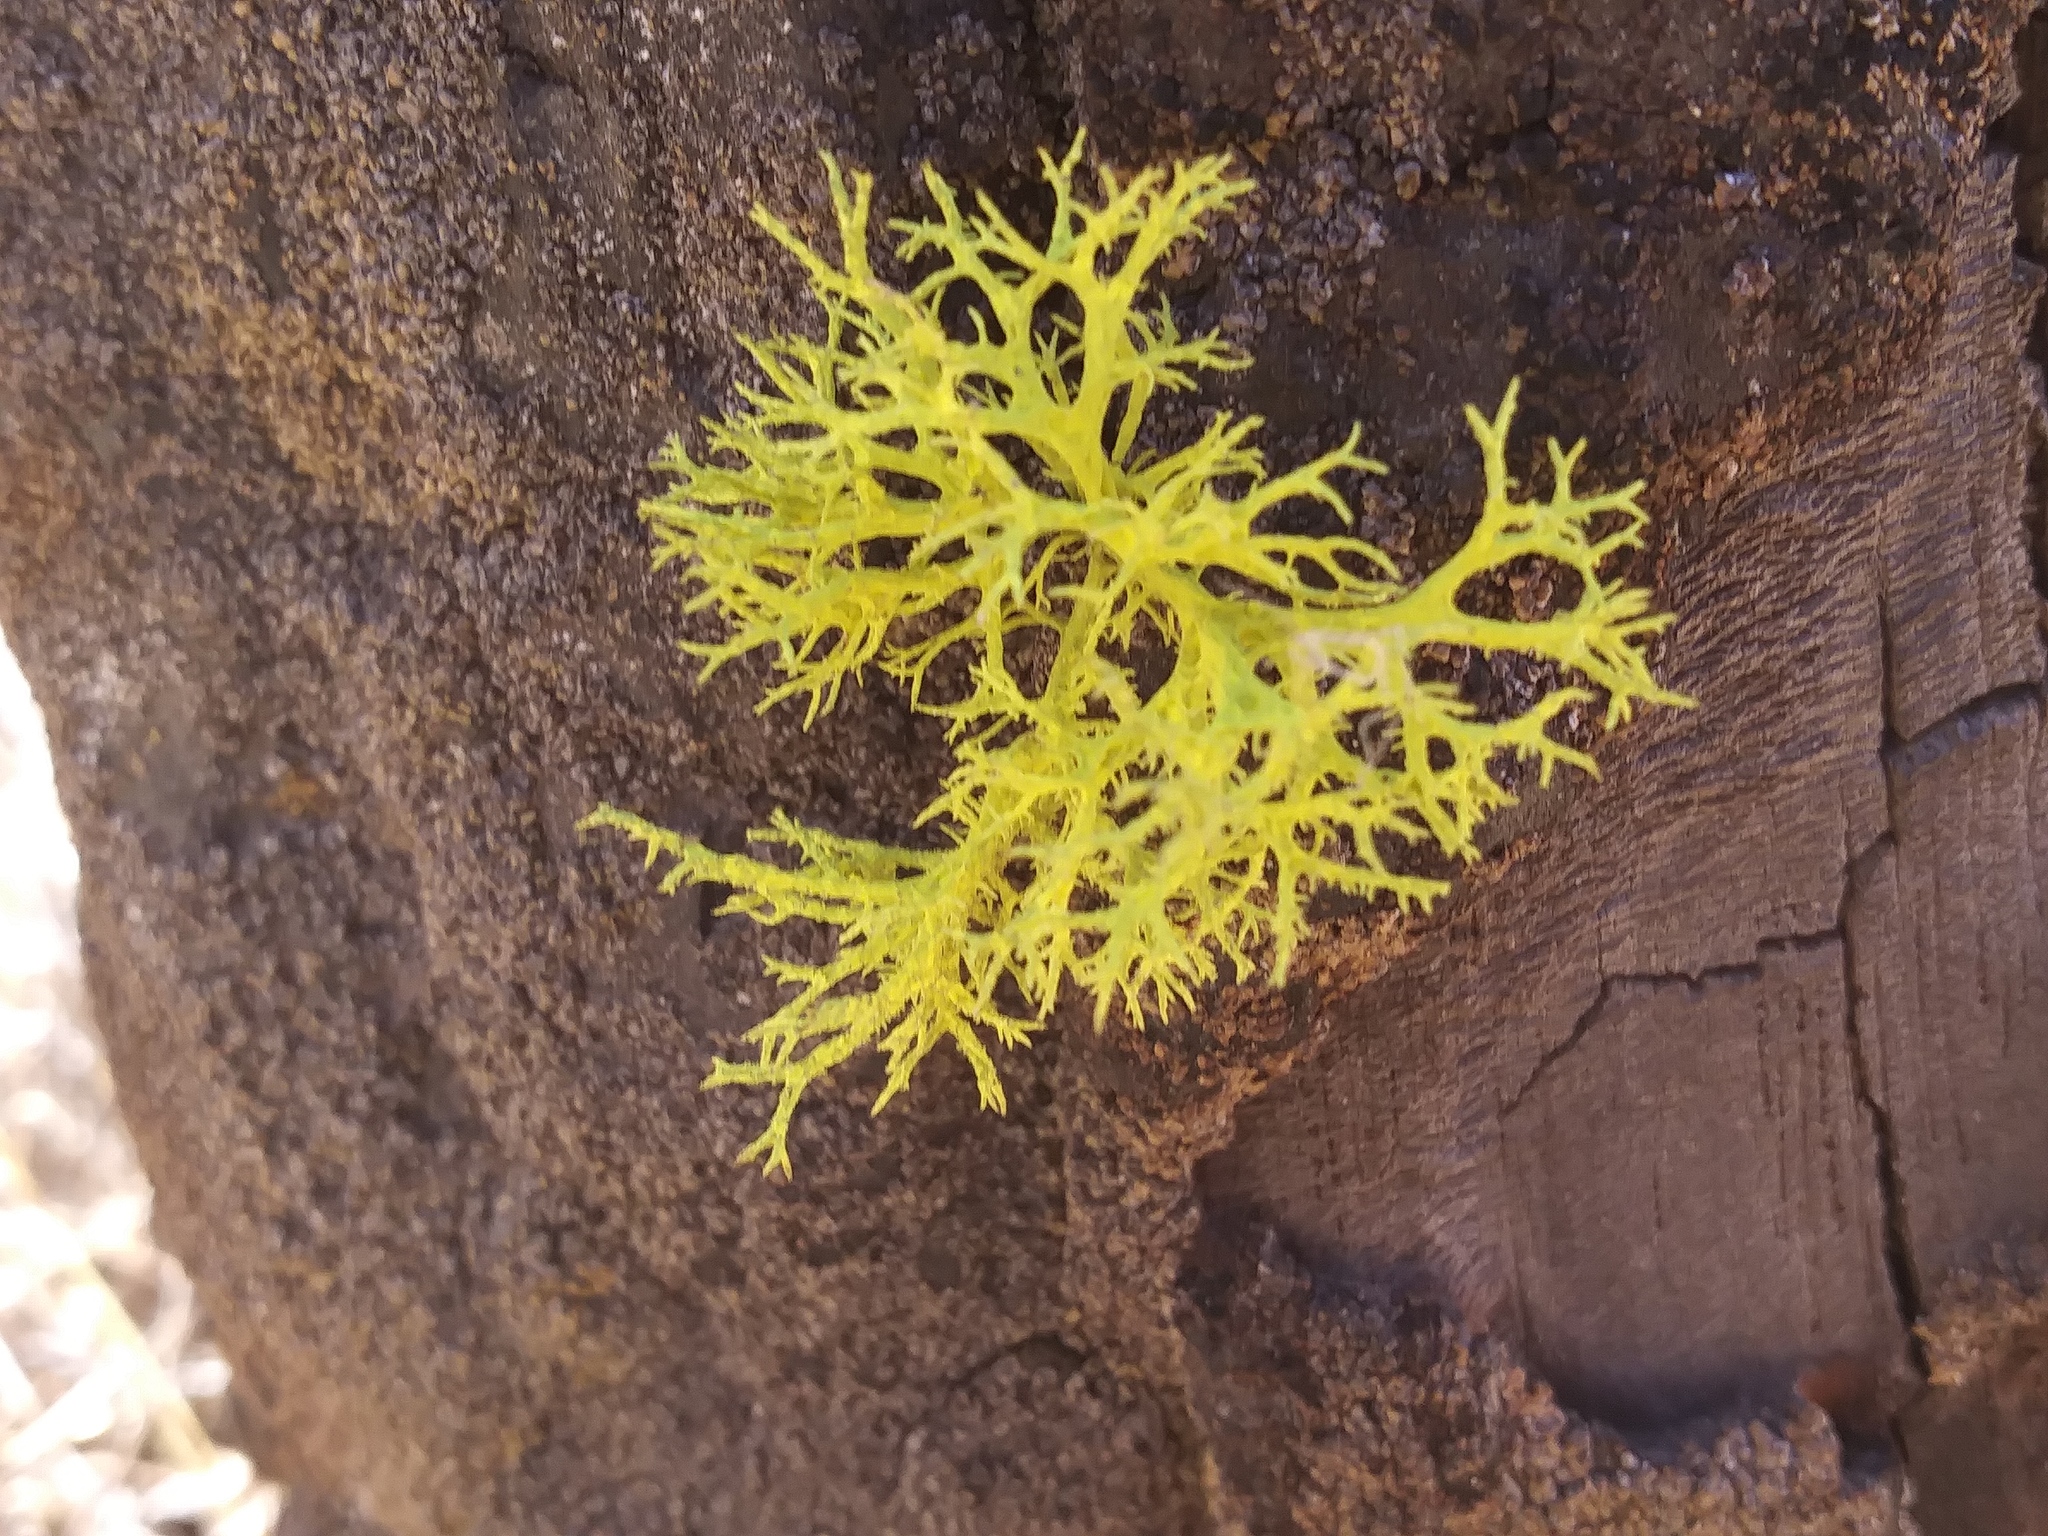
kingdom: Fungi
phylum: Ascomycota
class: Lecanoromycetes
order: Lecanorales
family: Parmeliaceae
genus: Letharia
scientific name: Letharia vulpina
